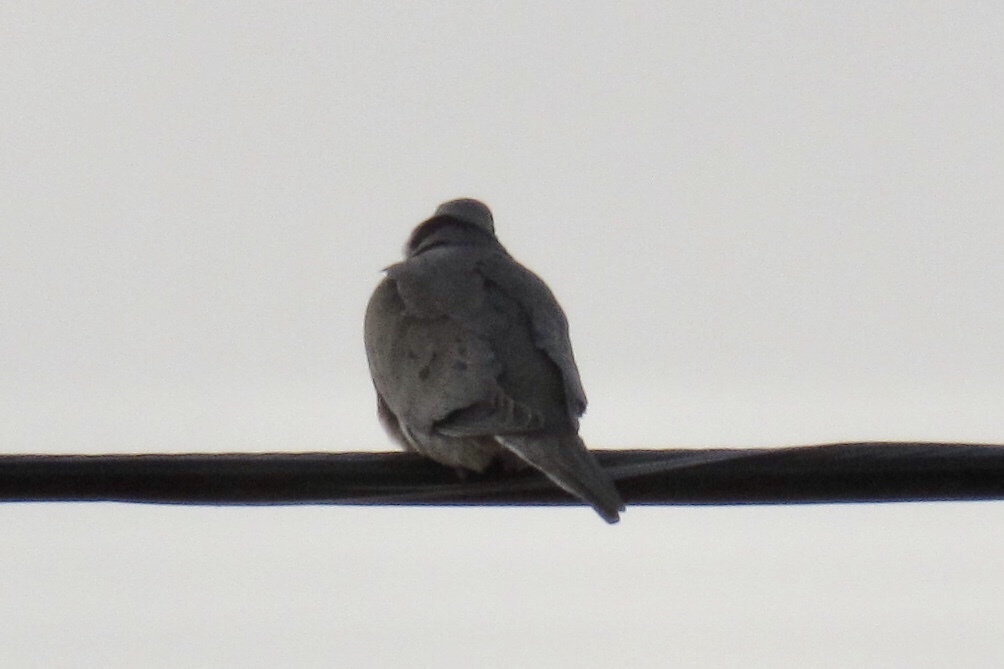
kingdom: Animalia
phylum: Chordata
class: Aves
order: Columbiformes
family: Columbidae
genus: Zenaida
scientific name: Zenaida macroura
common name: Mourning dove
